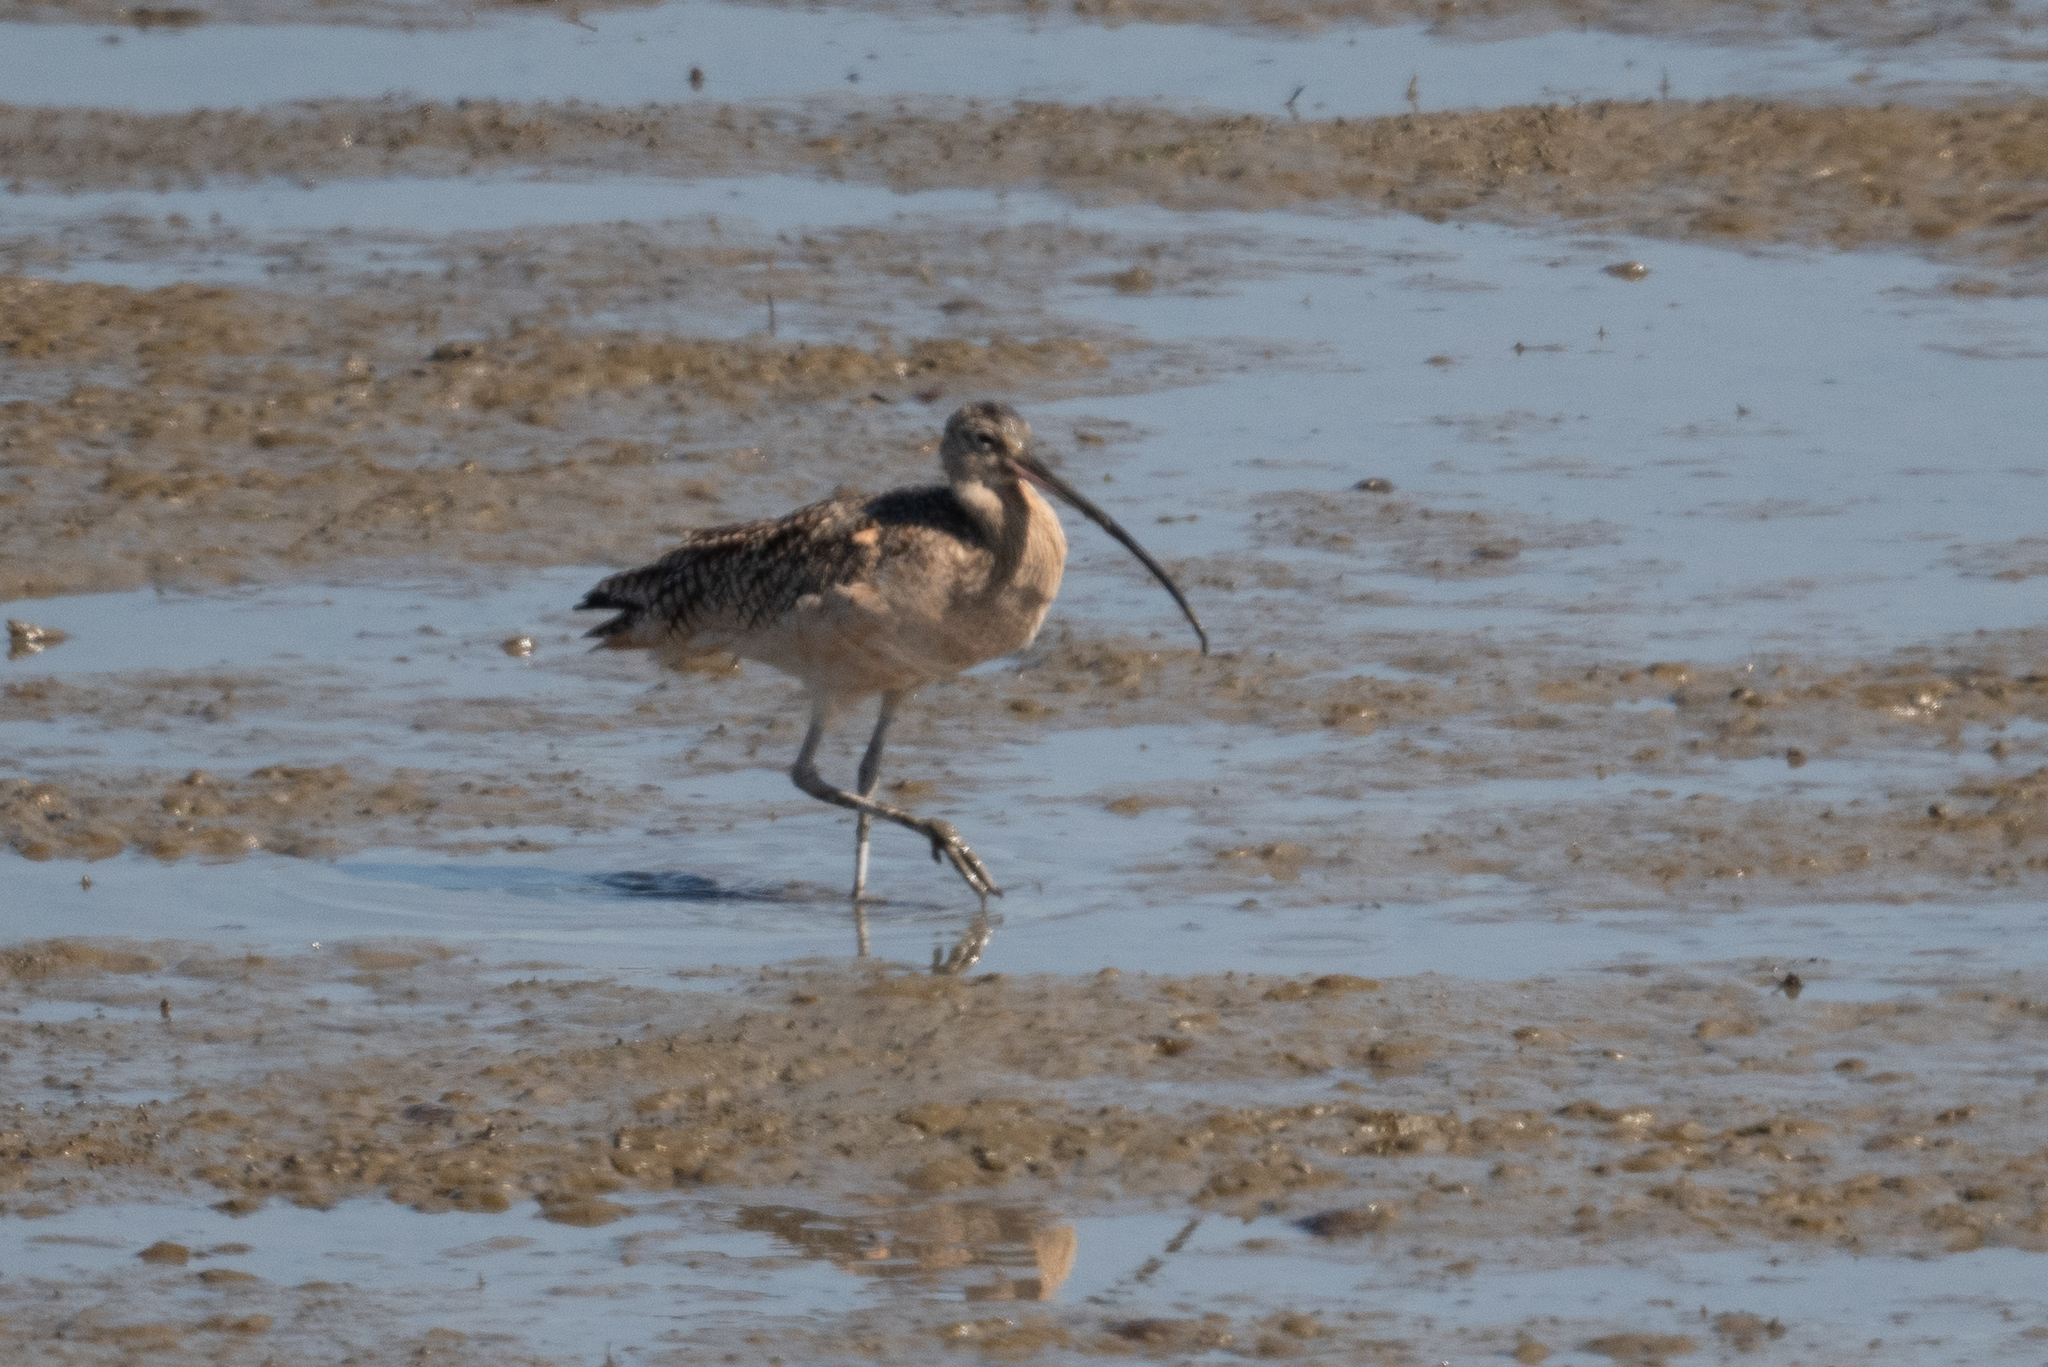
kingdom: Animalia
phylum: Chordata
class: Aves
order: Charadriiformes
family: Scolopacidae
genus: Numenius
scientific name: Numenius americanus
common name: Long-billed curlew
